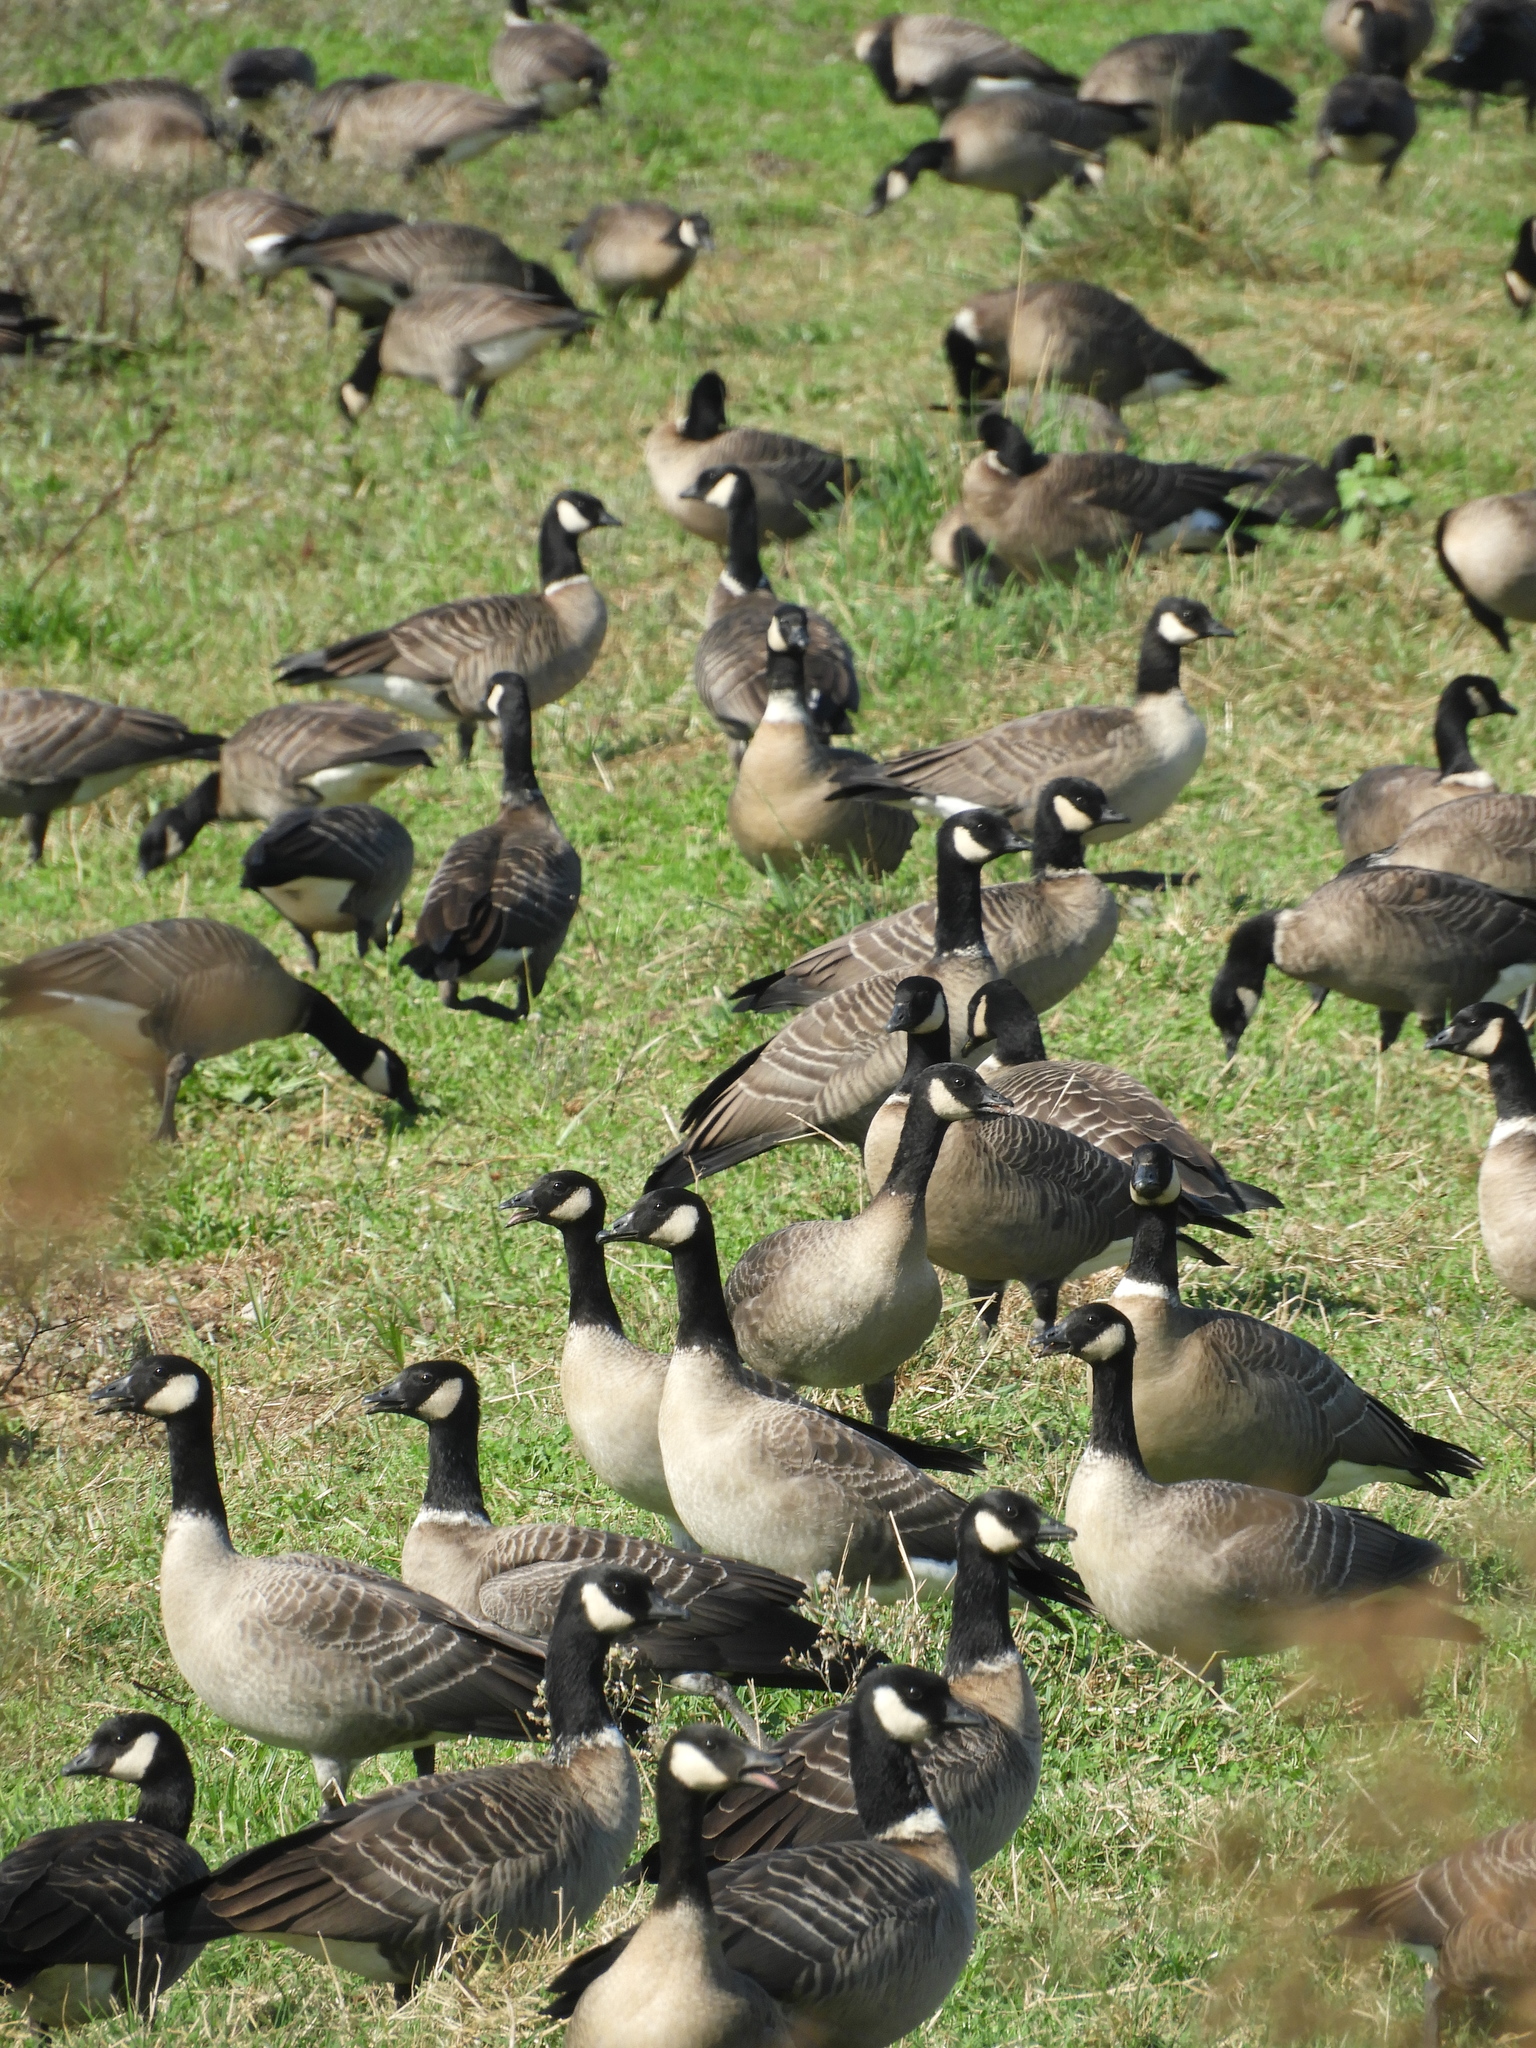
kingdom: Animalia
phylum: Chordata
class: Aves
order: Anseriformes
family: Anatidae
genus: Branta
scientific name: Branta hutchinsii
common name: Cackling goose
